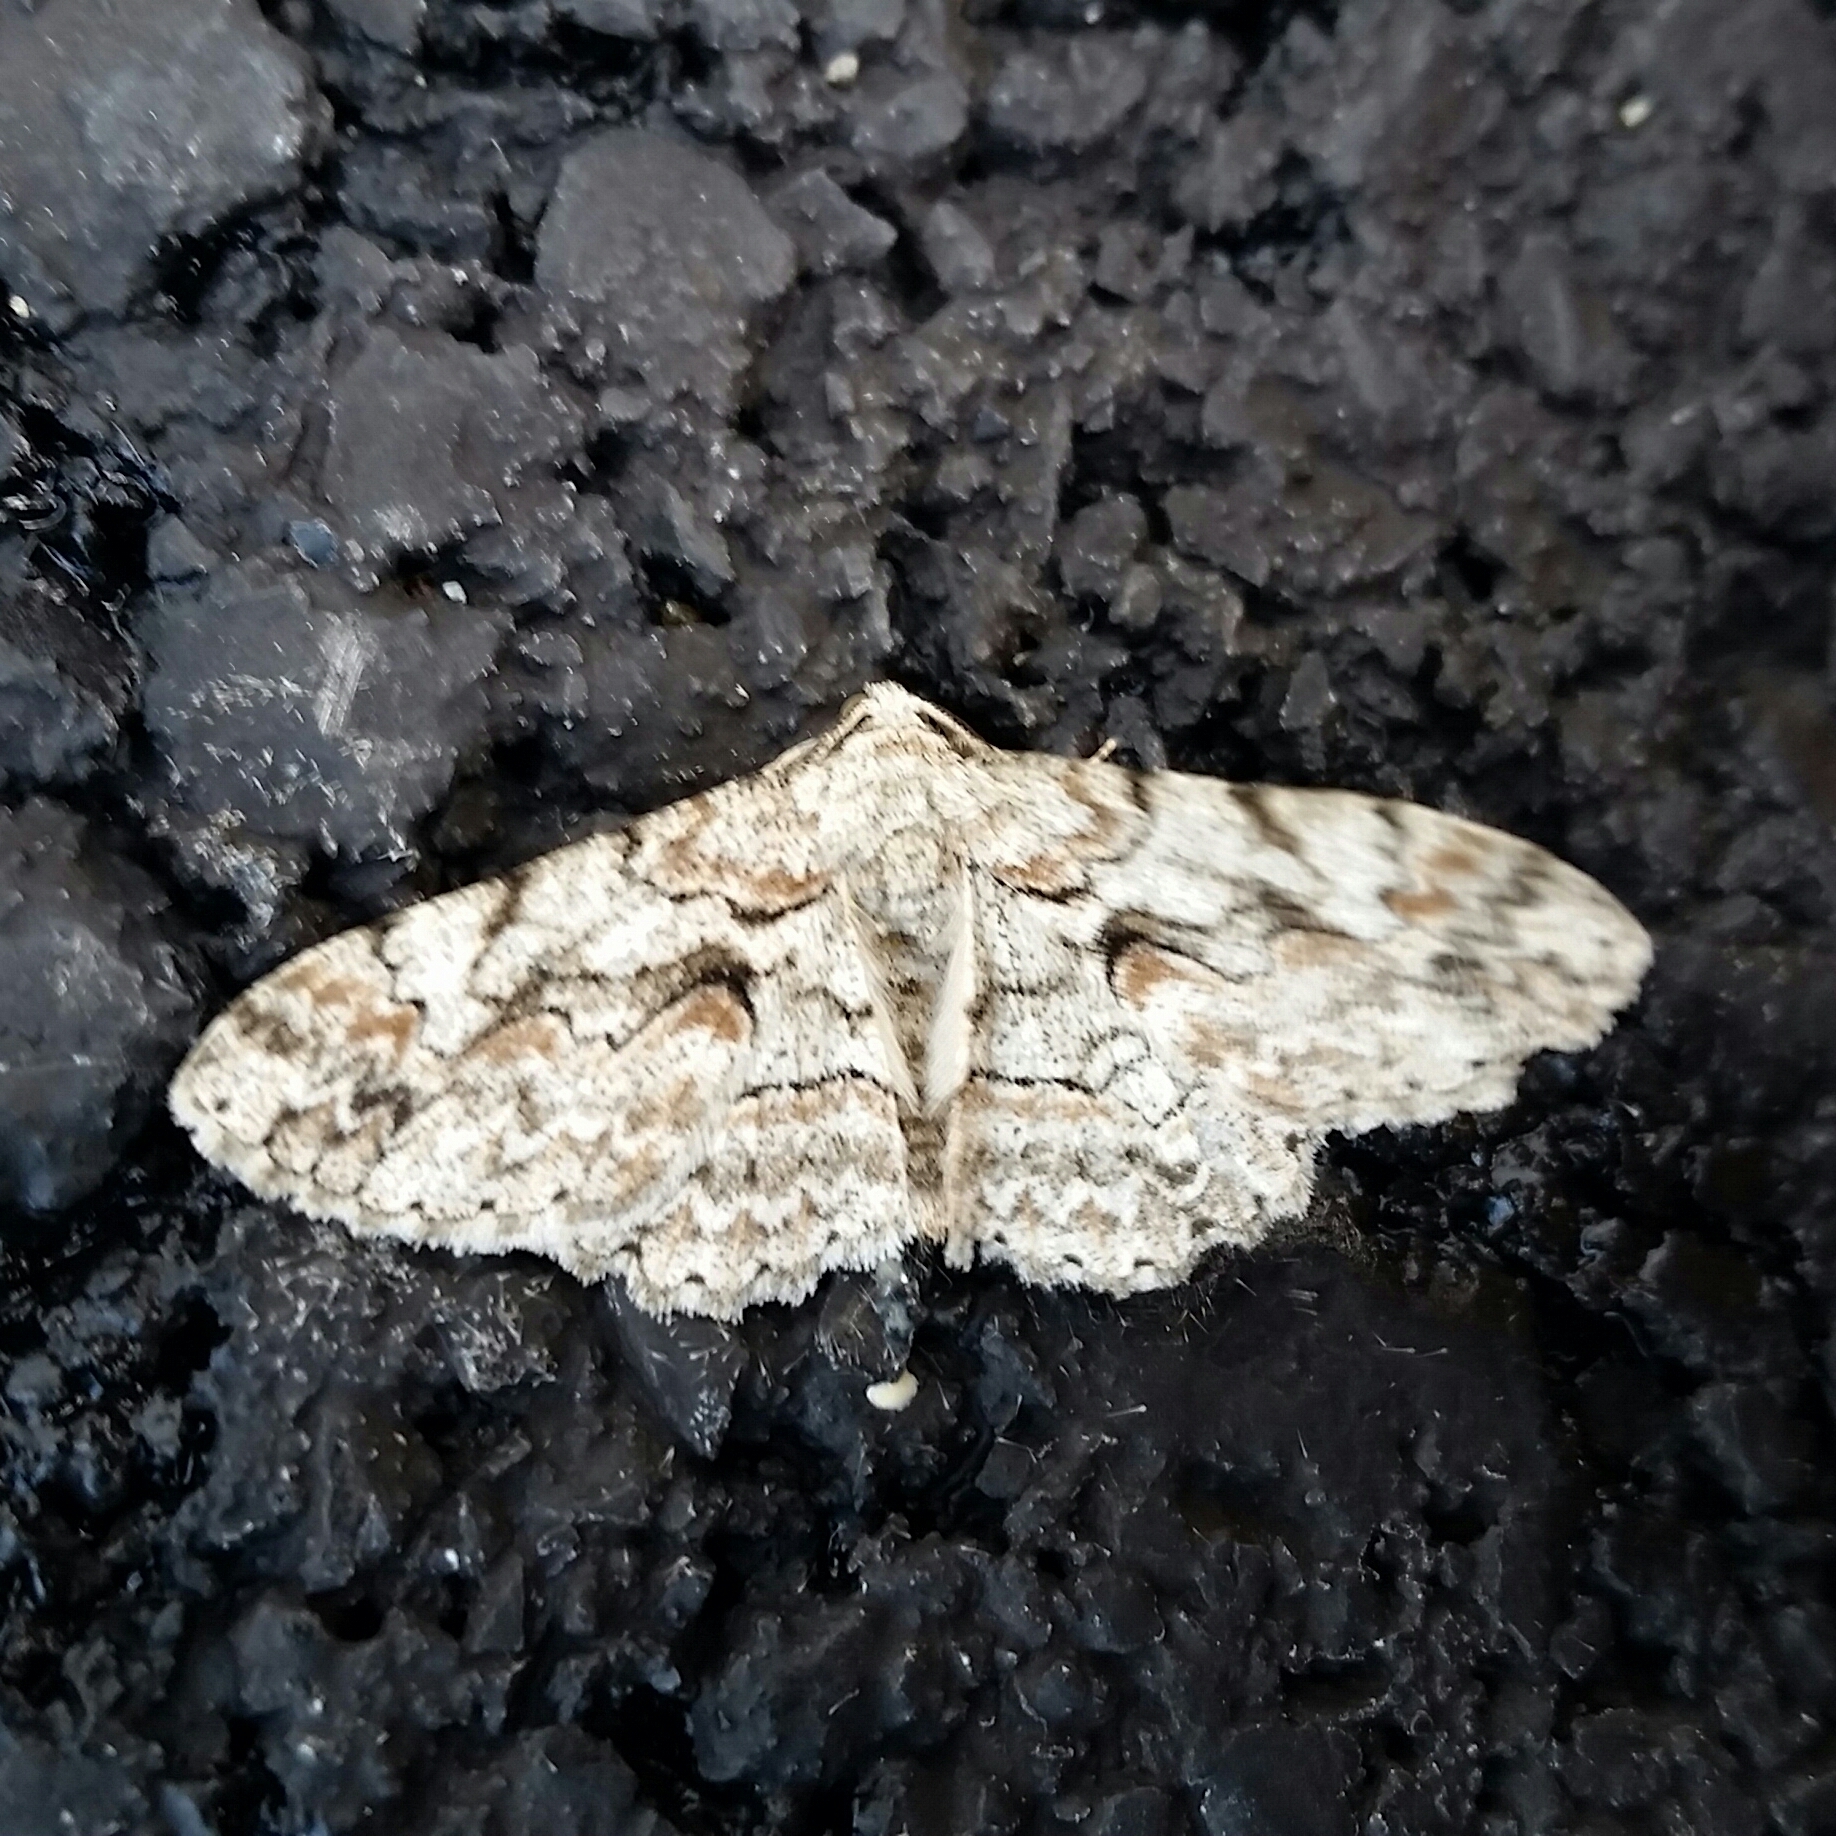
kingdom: Animalia
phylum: Arthropoda
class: Insecta
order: Lepidoptera
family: Geometridae
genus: Iridopsis
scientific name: Iridopsis defectaria
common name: Brown-shaded gray
